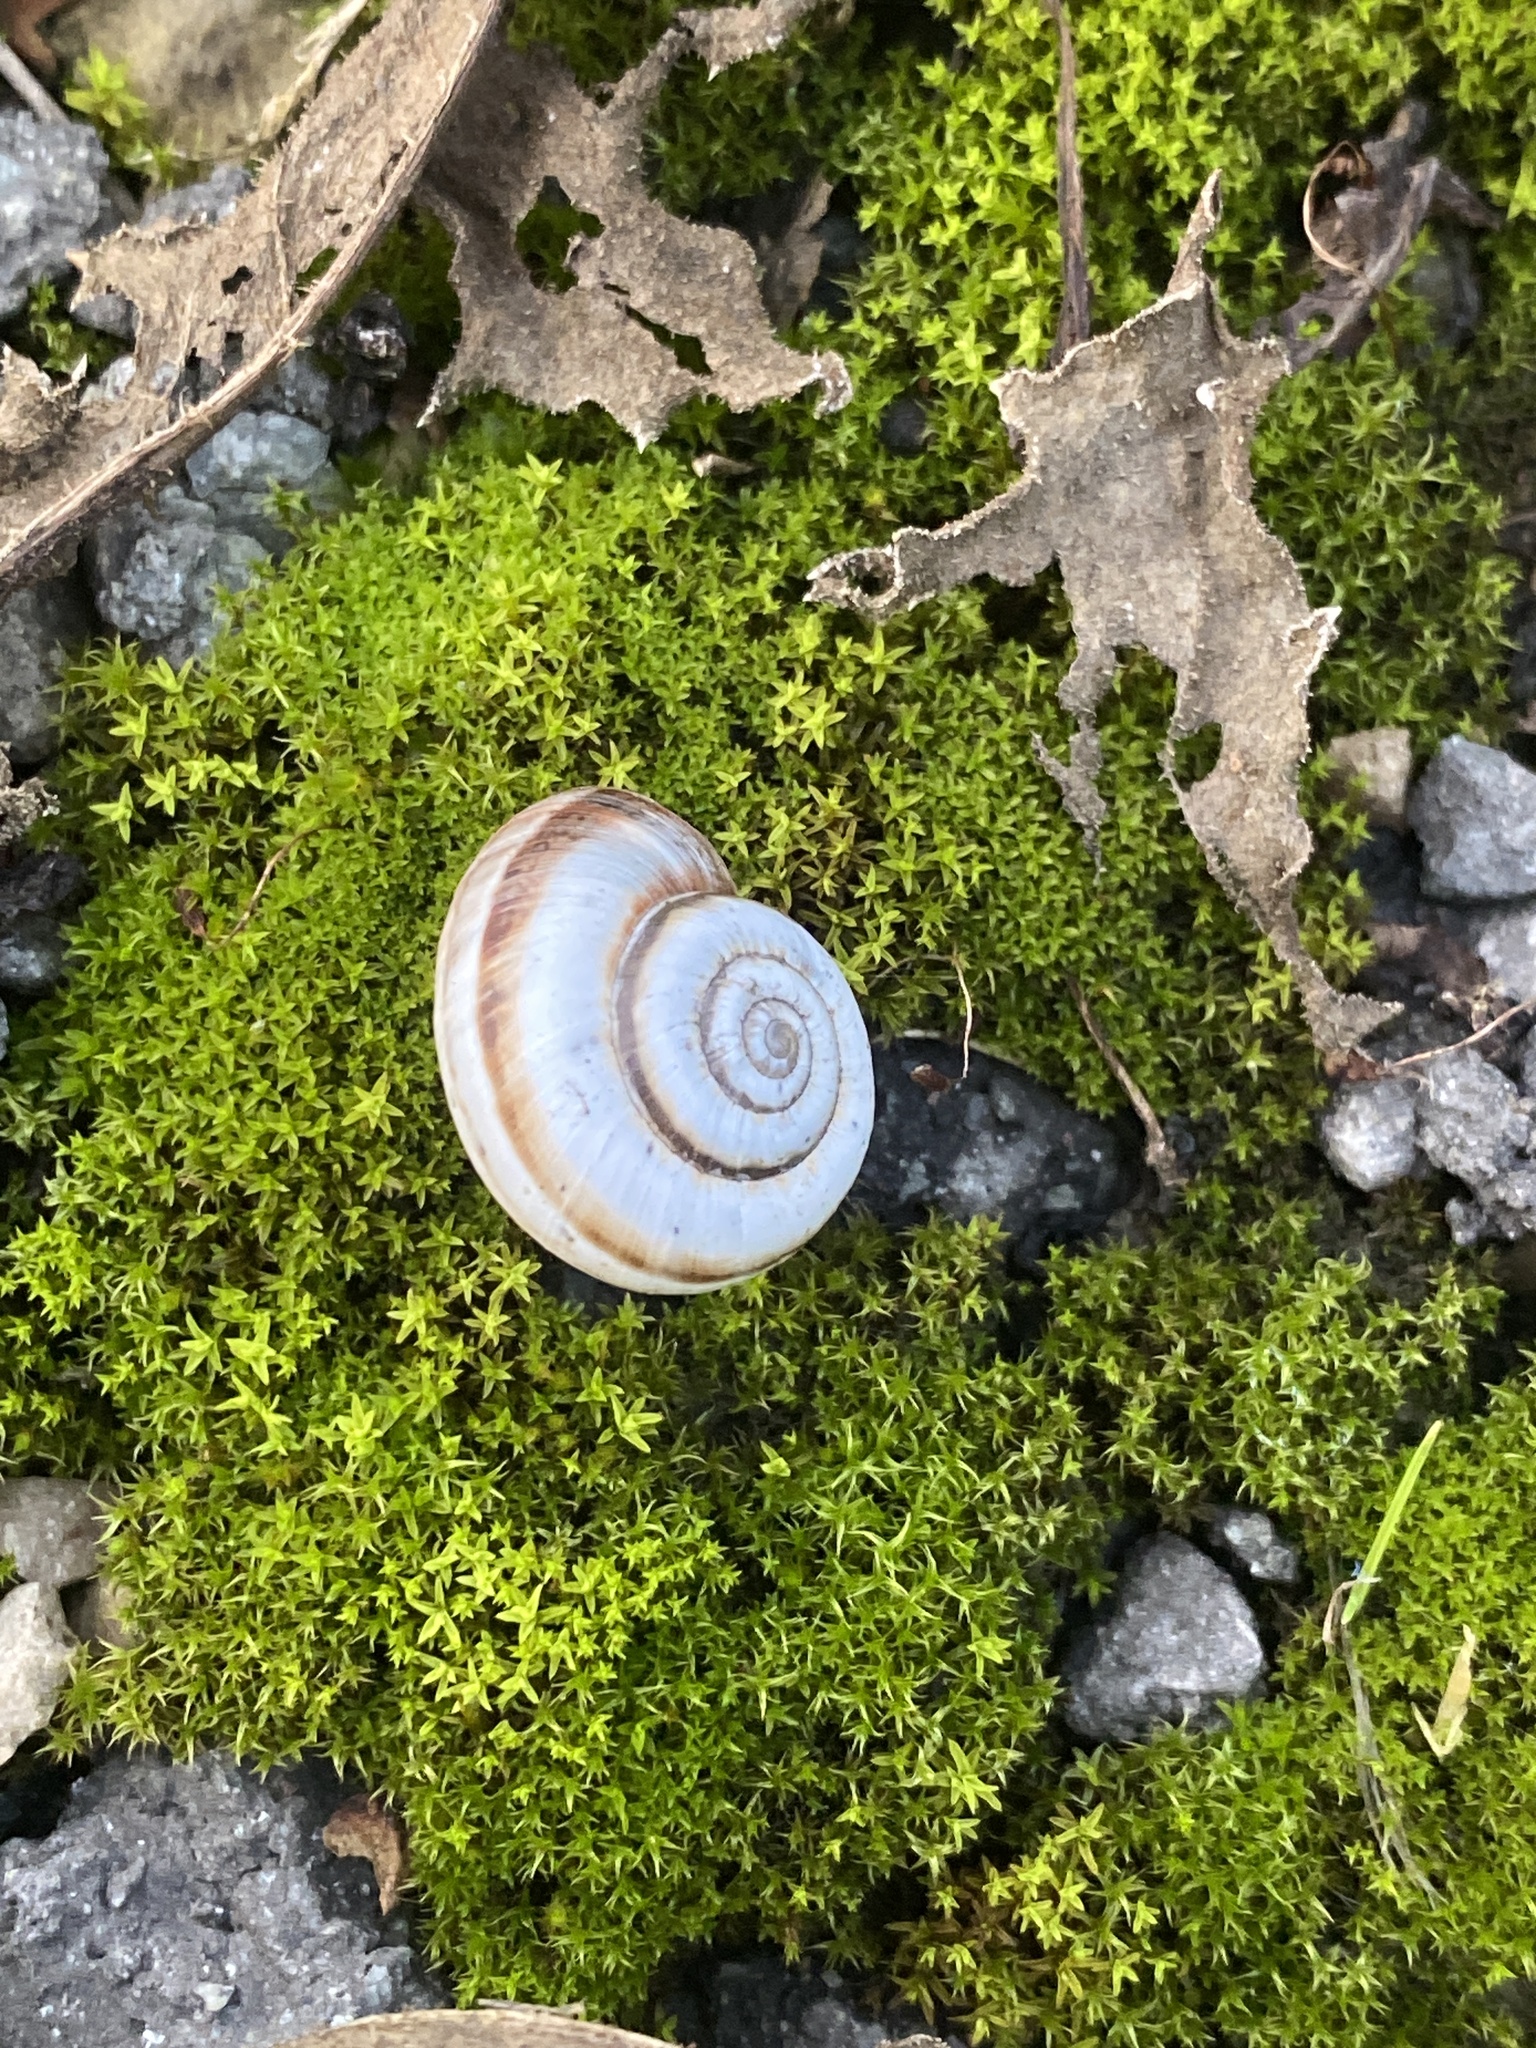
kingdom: Animalia
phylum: Mollusca
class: Gastropoda
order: Stylommatophora
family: Geomitridae
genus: Xerolenta
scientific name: Xerolenta obvia
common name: White heath snail
